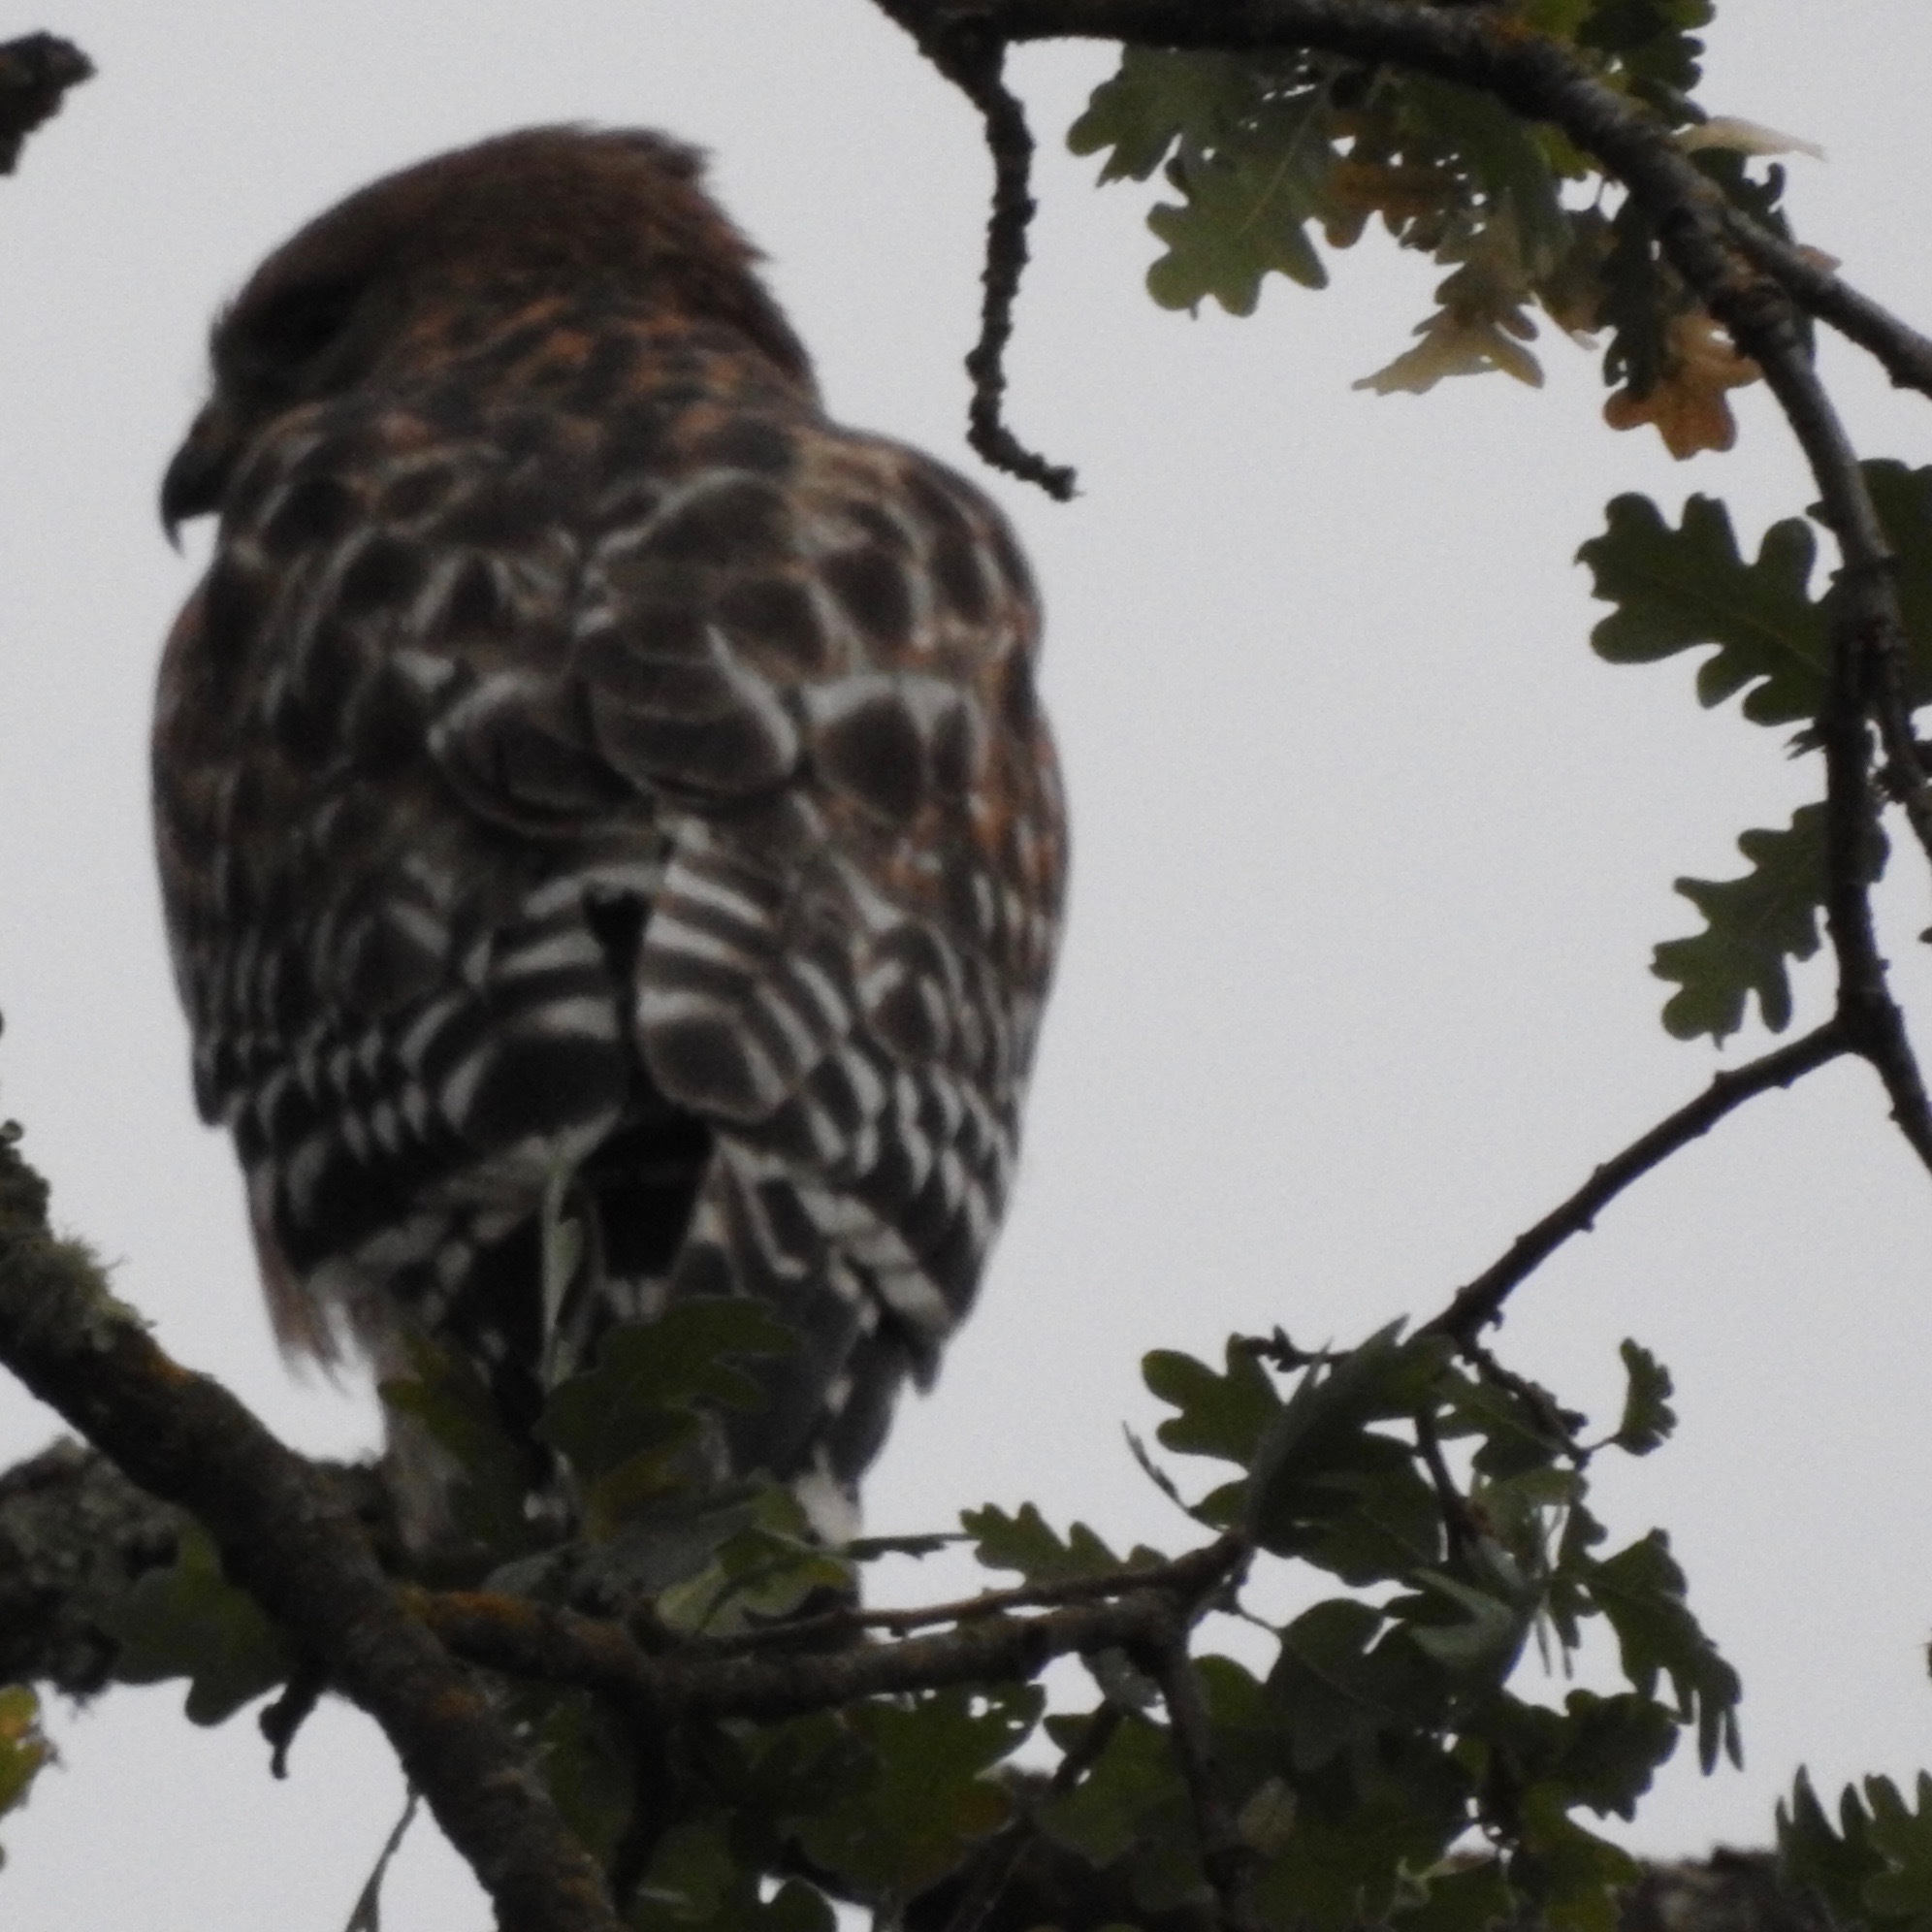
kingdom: Animalia
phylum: Chordata
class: Aves
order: Accipitriformes
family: Accipitridae
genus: Buteo
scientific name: Buteo lineatus
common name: Red-shouldered hawk
